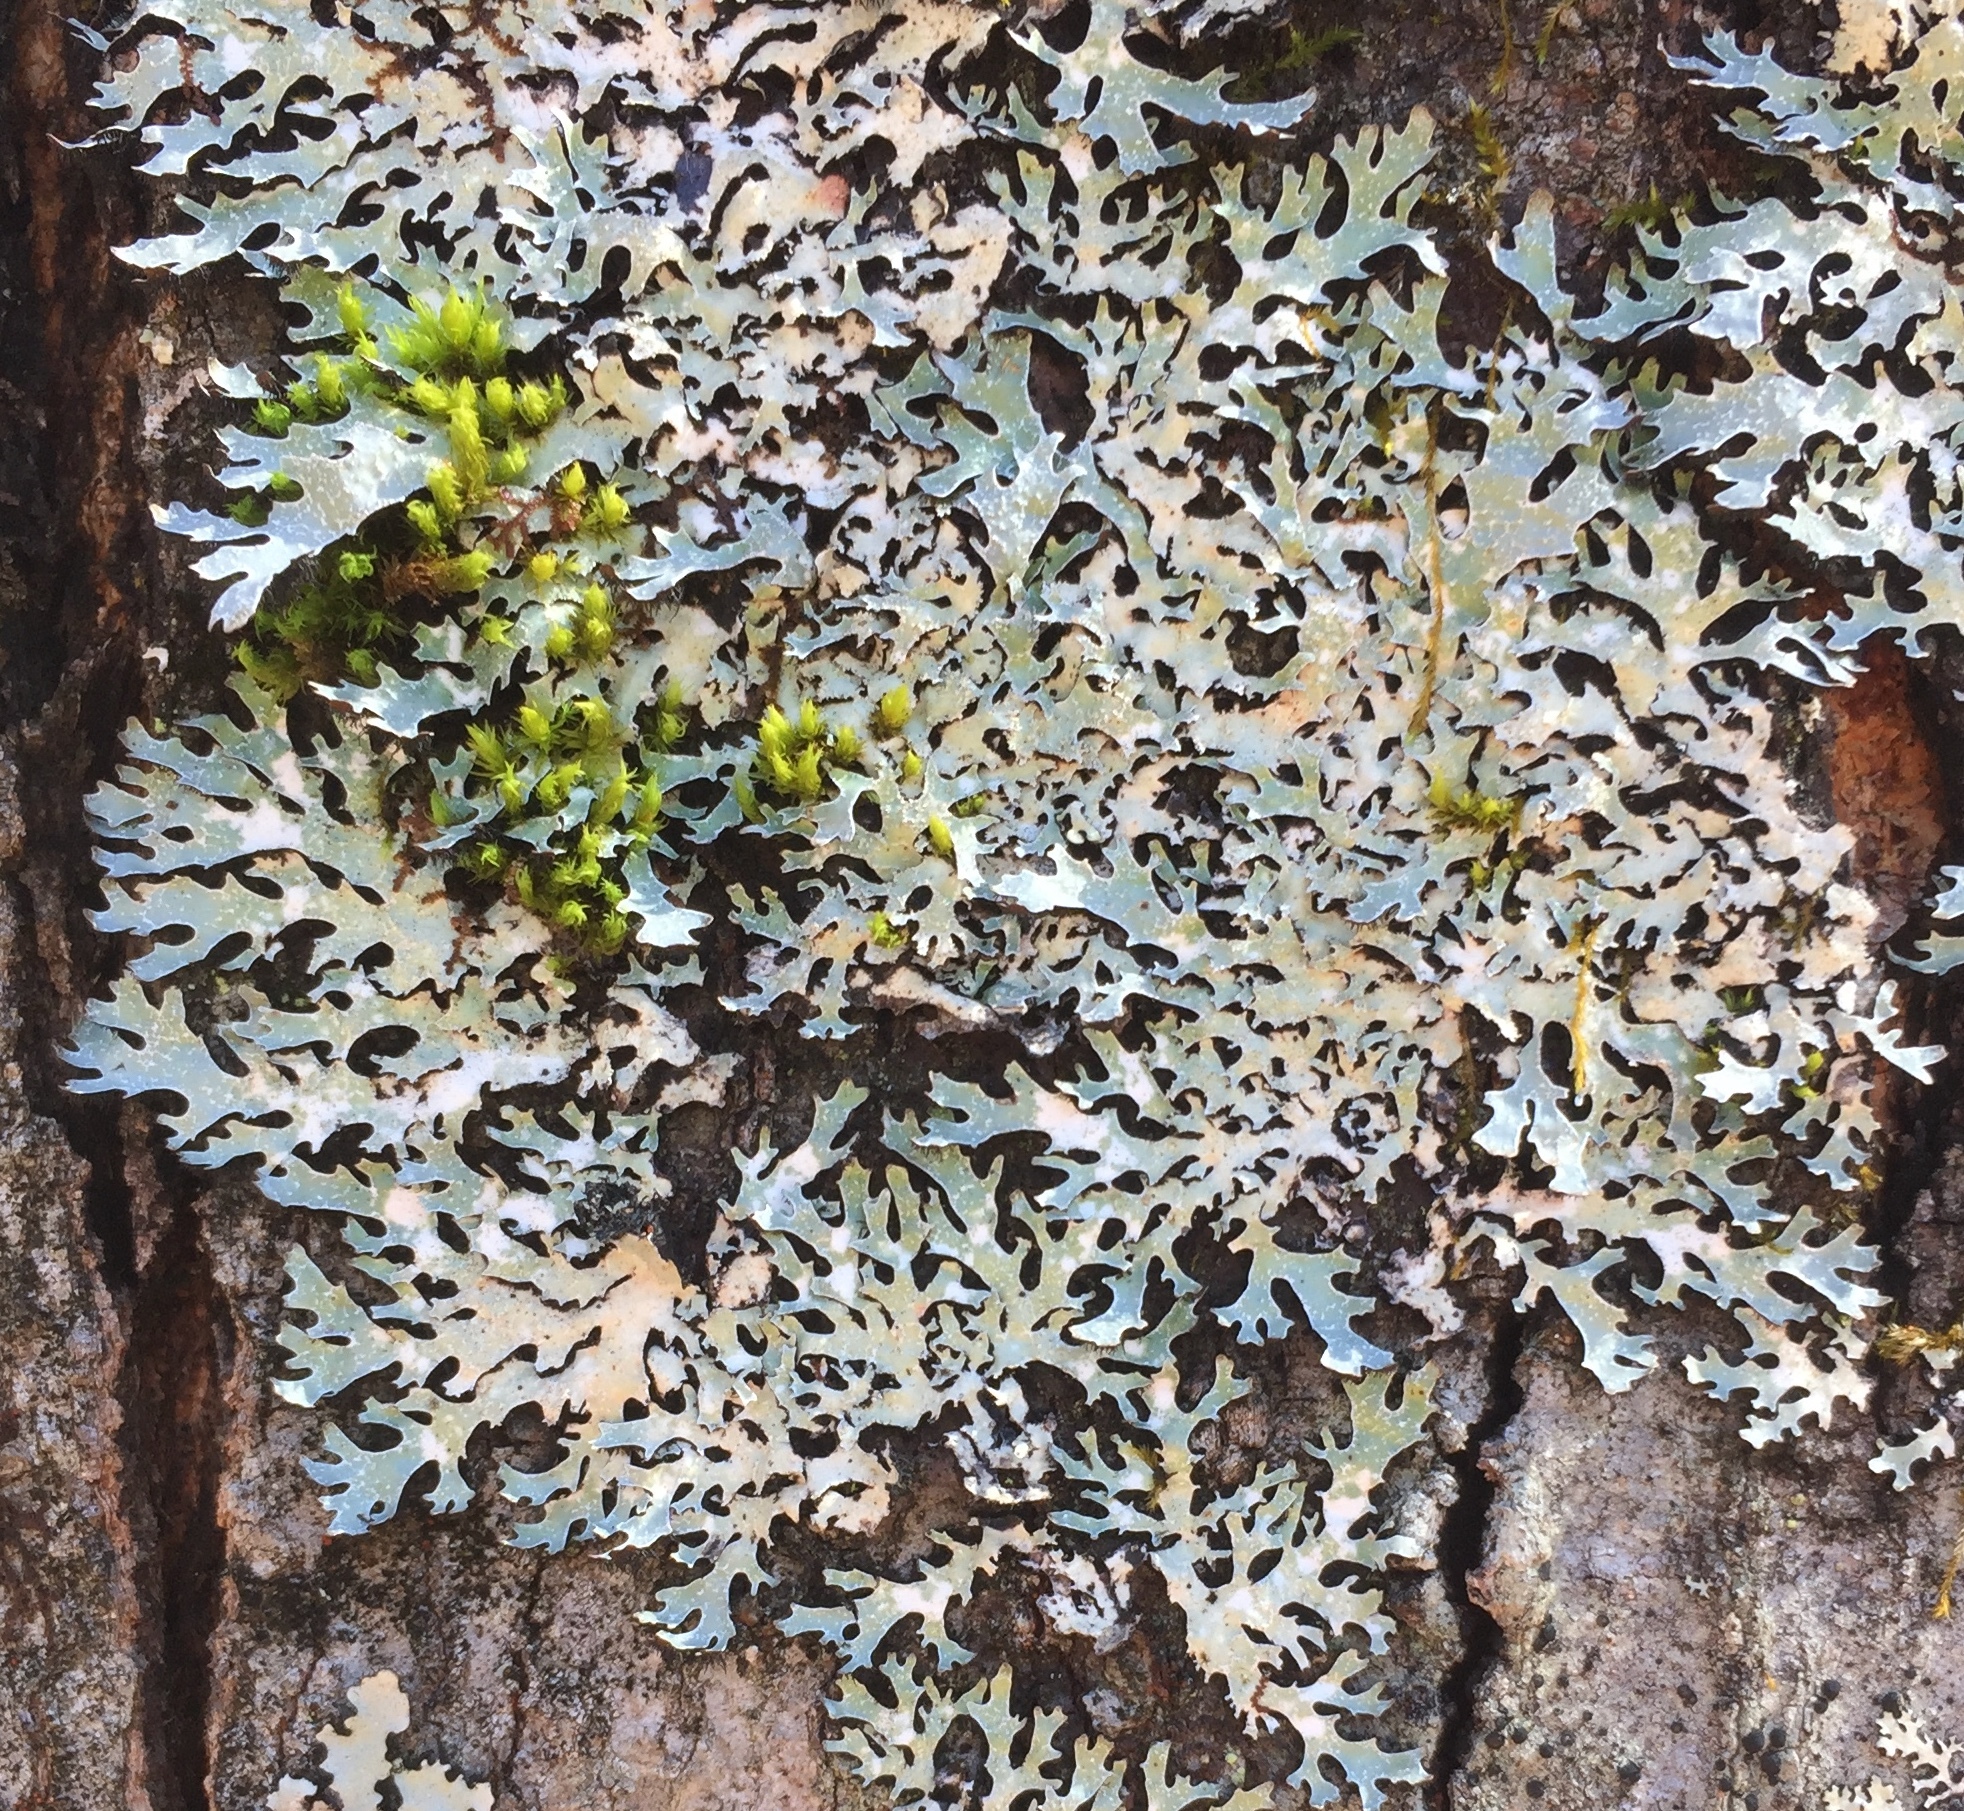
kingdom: Fungi
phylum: Ascomycota
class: Lecanoromycetes
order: Lecanorales
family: Parmeliaceae
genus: Parmelia
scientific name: Parmelia squarrosa
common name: Bottle brush shield lichen
